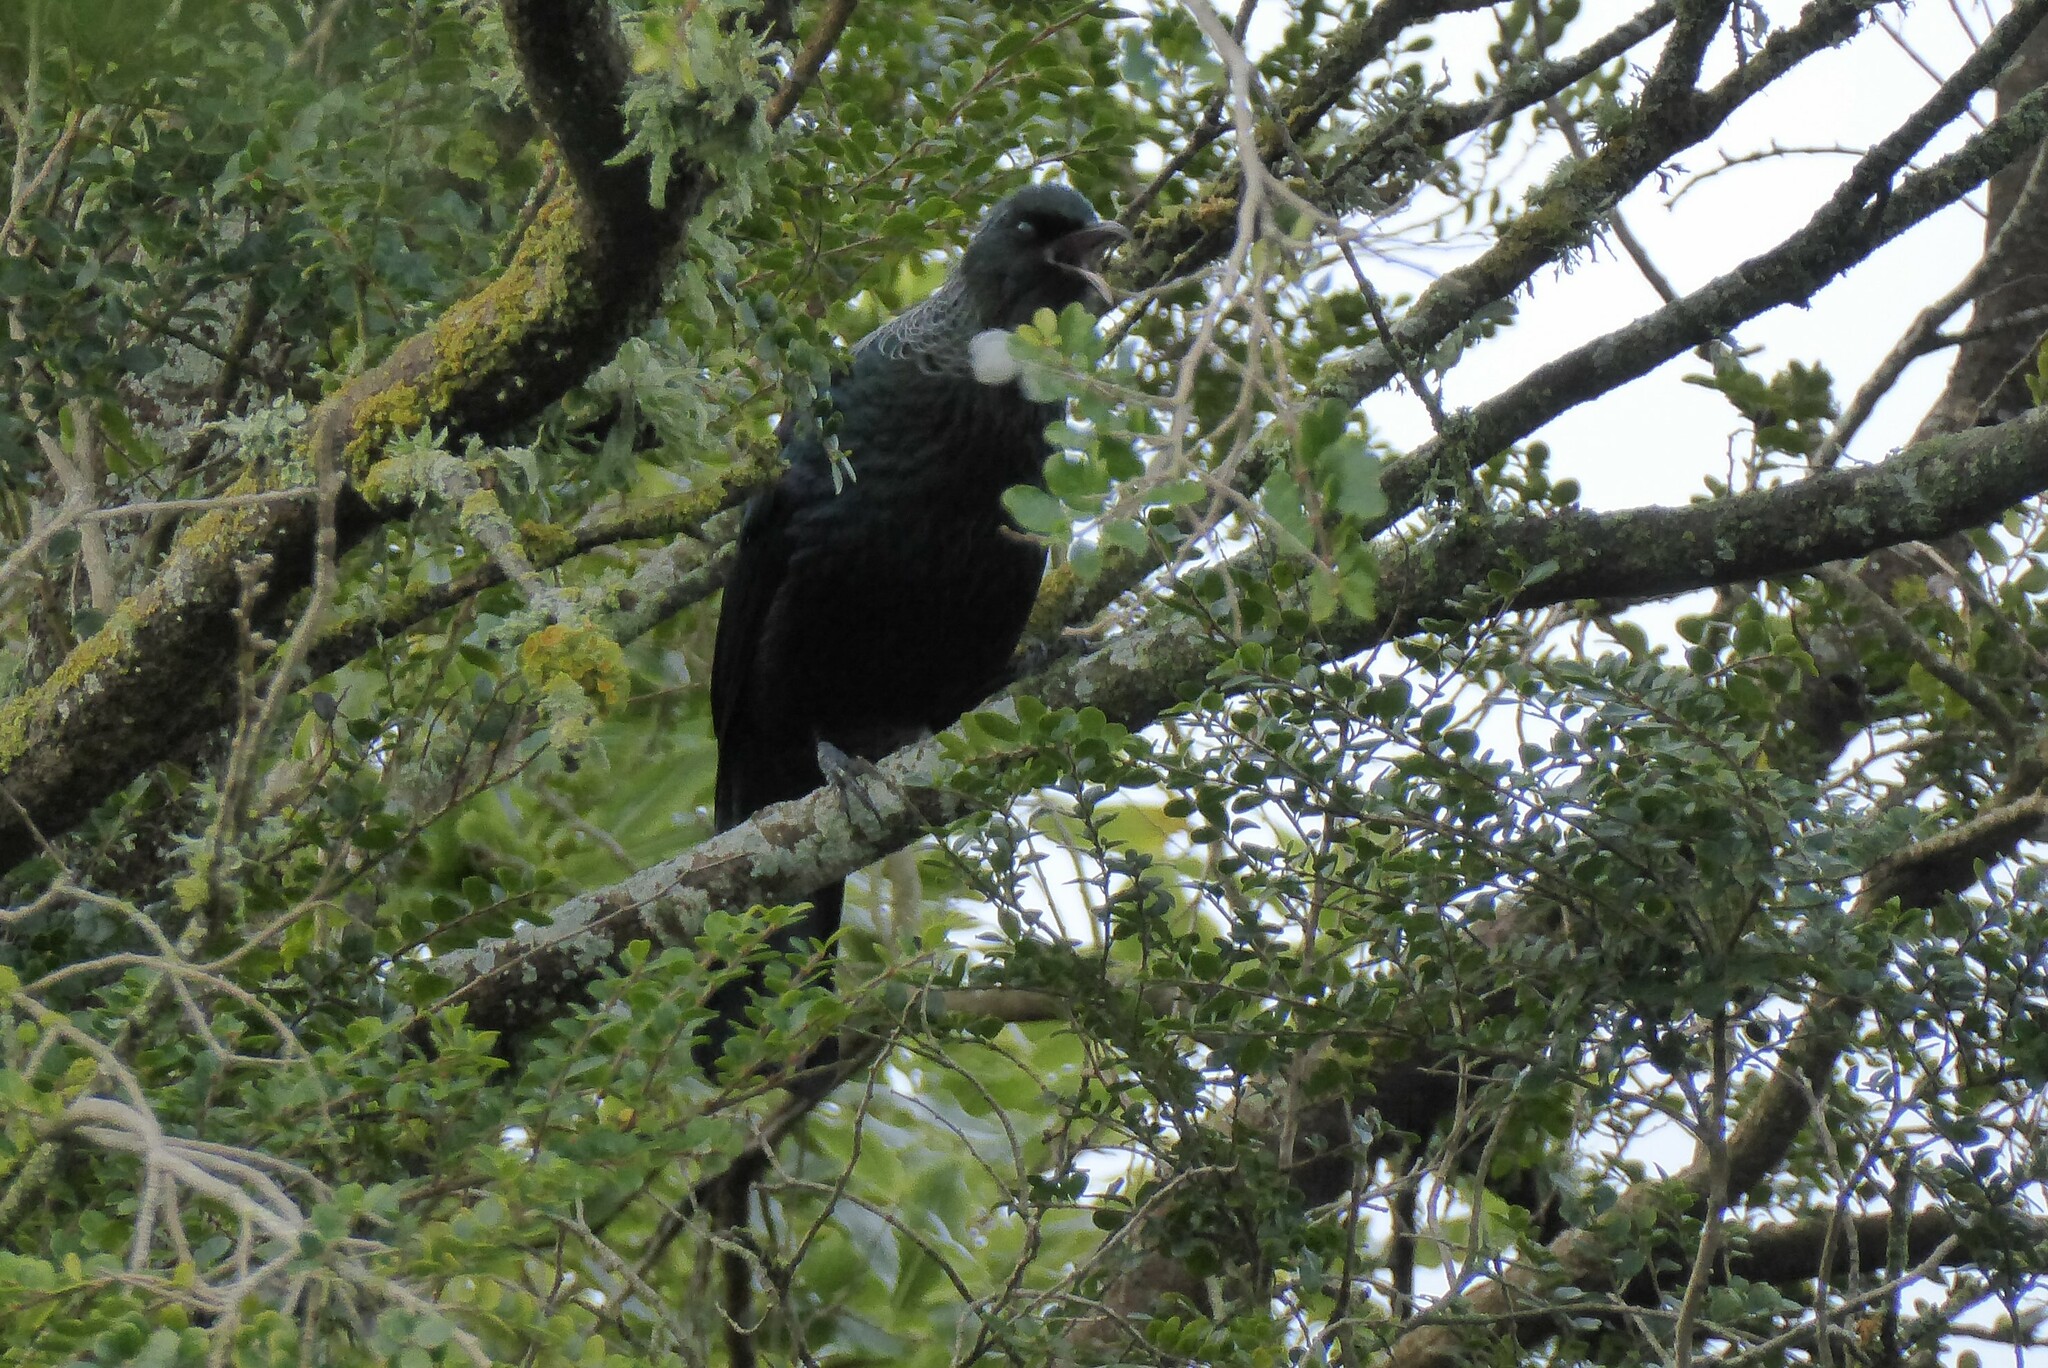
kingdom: Animalia
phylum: Chordata
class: Aves
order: Passeriformes
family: Meliphagidae
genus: Prosthemadera
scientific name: Prosthemadera novaeseelandiae
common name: Tui
